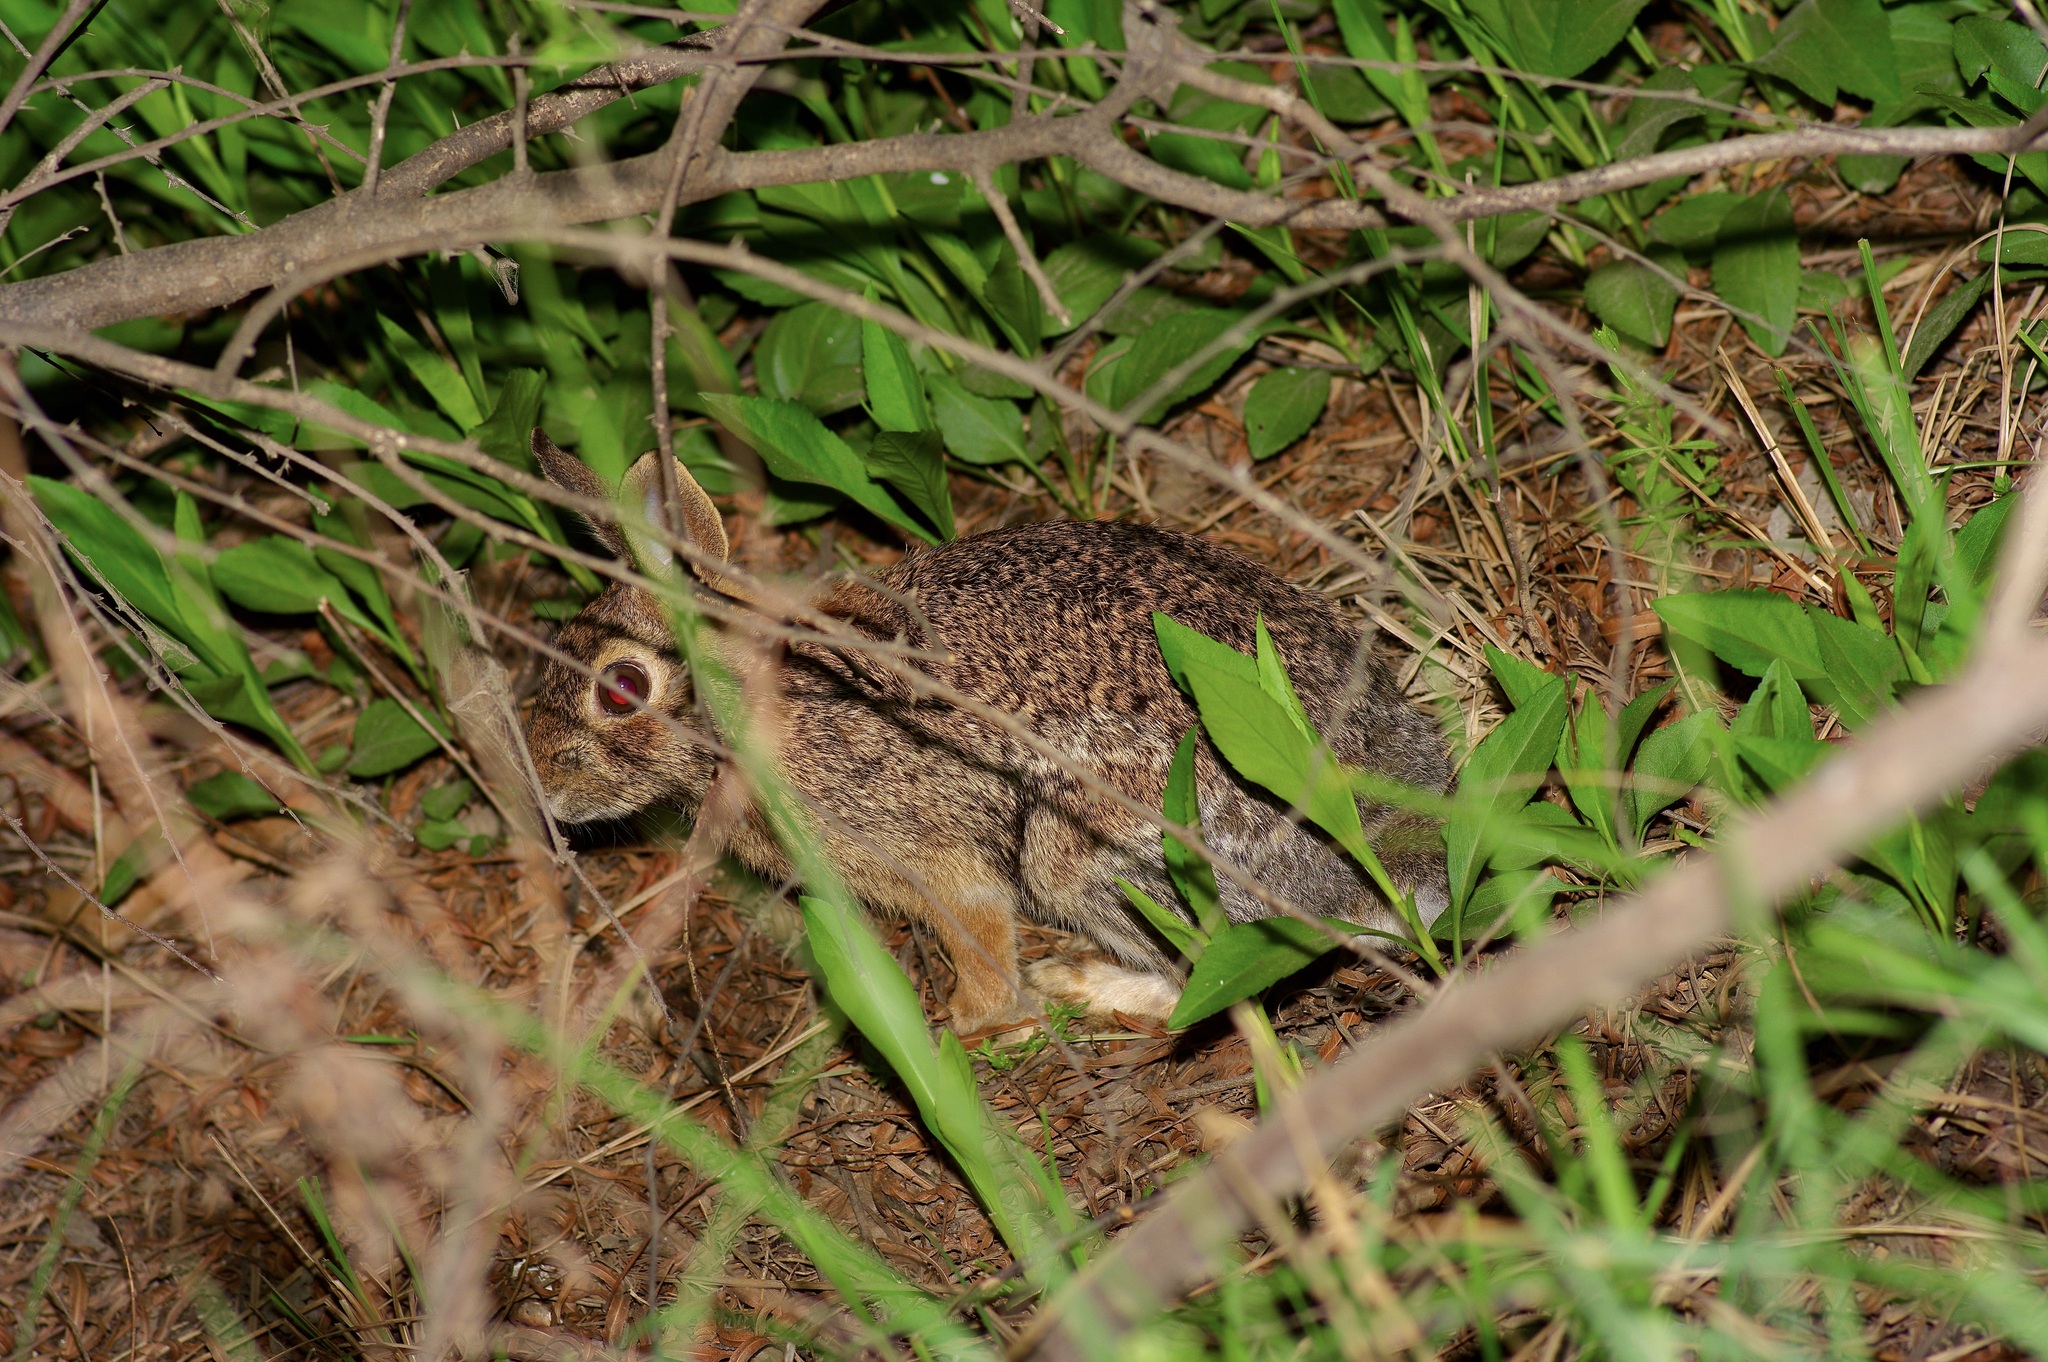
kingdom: Animalia
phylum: Chordata
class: Mammalia
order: Lagomorpha
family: Leporidae
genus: Sylvilagus
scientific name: Sylvilagus floridanus
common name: Eastern cottontail
